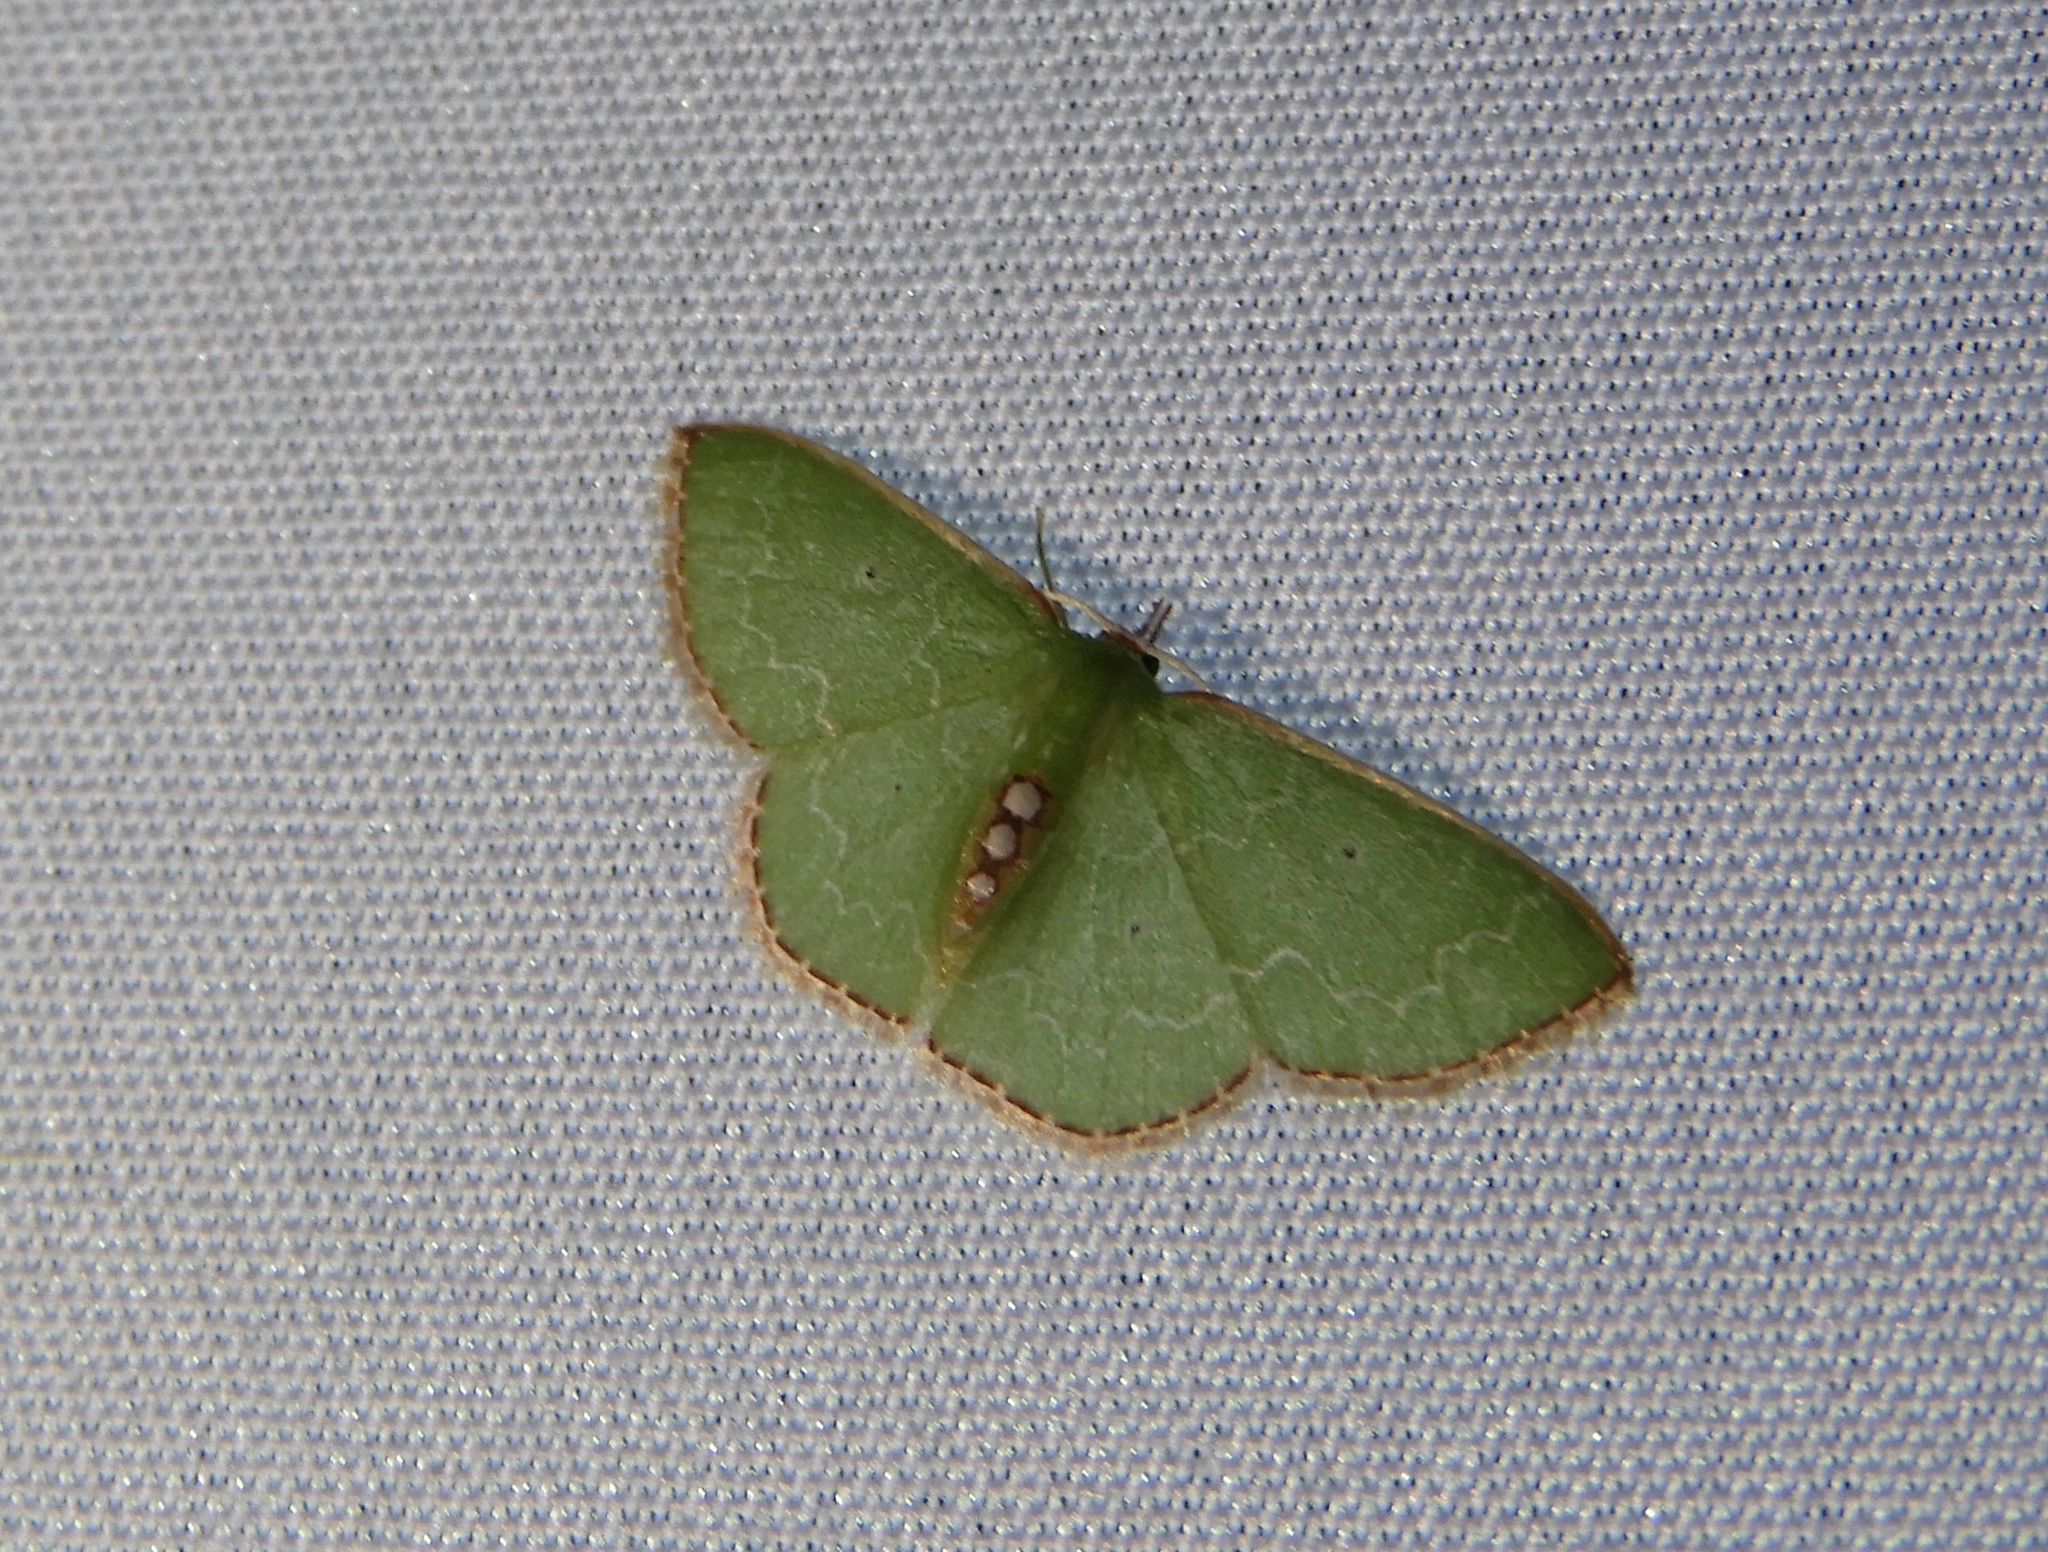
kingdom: Animalia
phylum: Arthropoda
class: Insecta
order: Lepidoptera
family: Geometridae
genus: Nemoria
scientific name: Nemoria lixaria
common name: Red-bordered emerald
